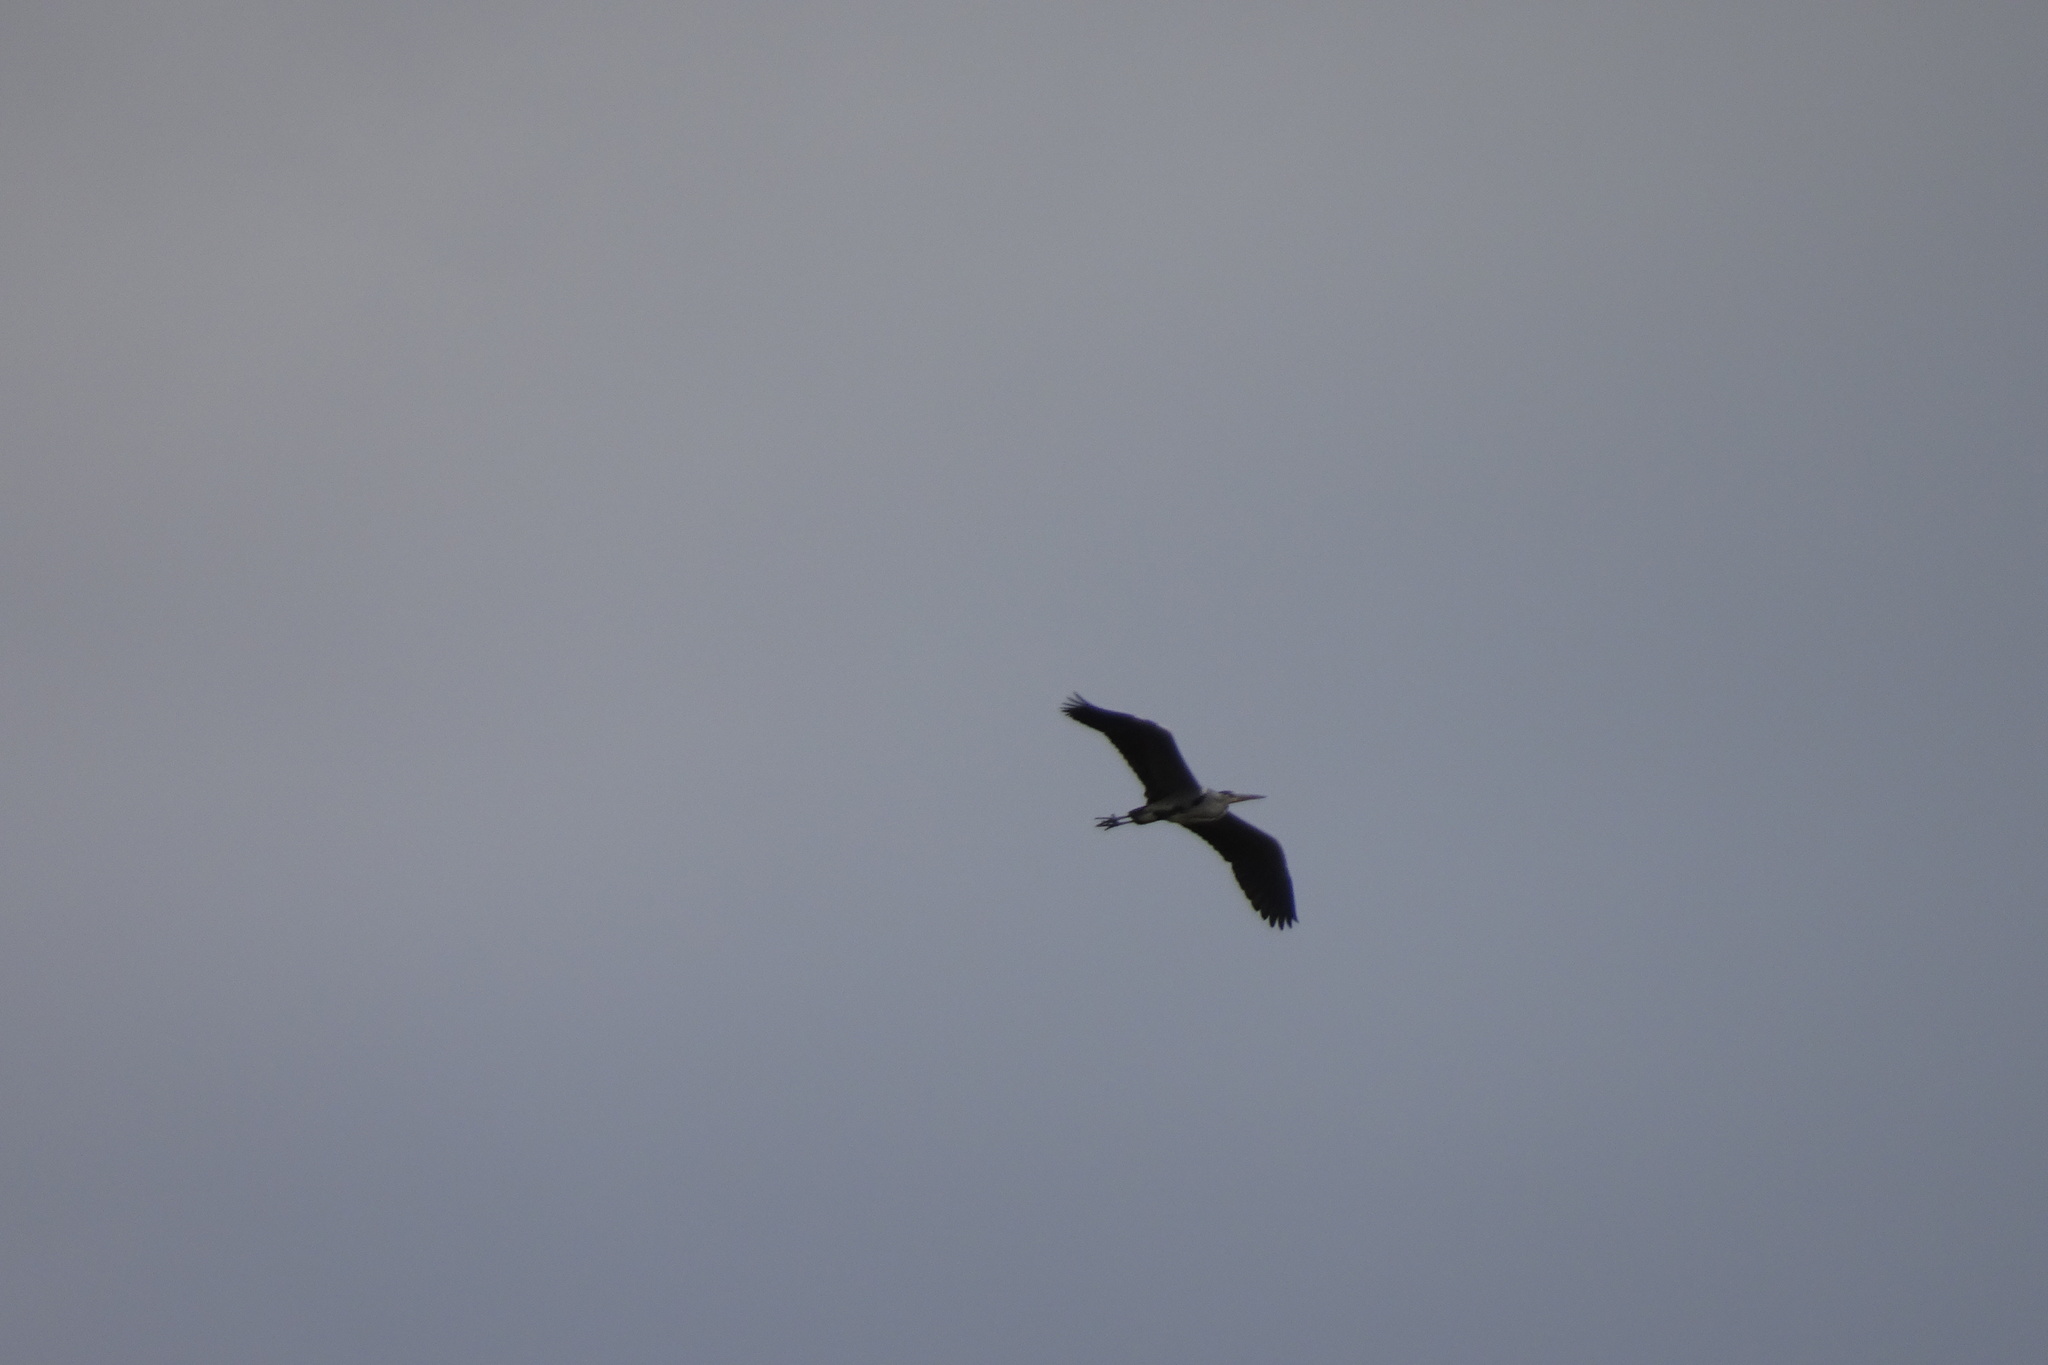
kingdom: Animalia
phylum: Chordata
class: Aves
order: Pelecaniformes
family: Ardeidae
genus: Ardea
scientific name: Ardea cinerea
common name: Grey heron
